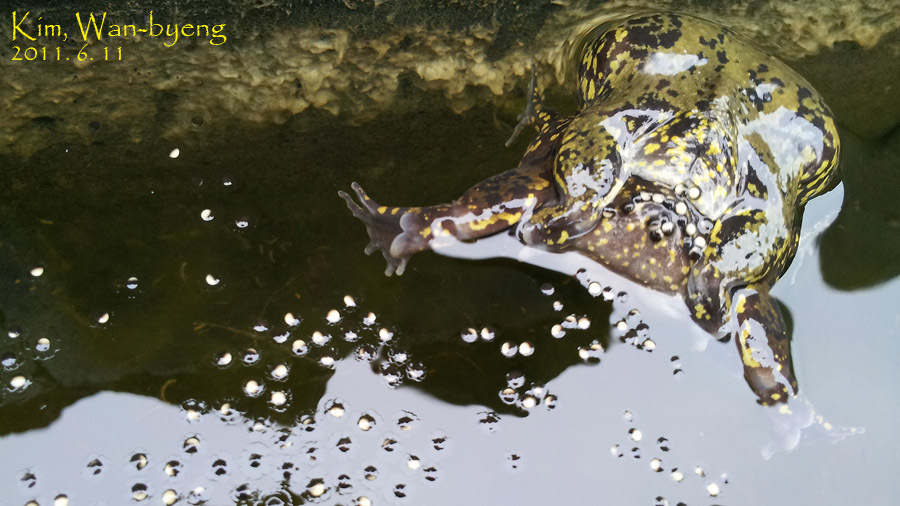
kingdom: Animalia
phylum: Chordata
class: Amphibia
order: Anura
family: Microhylidae
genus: Kaloula
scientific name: Kaloula borealis
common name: Boreal digging frog
